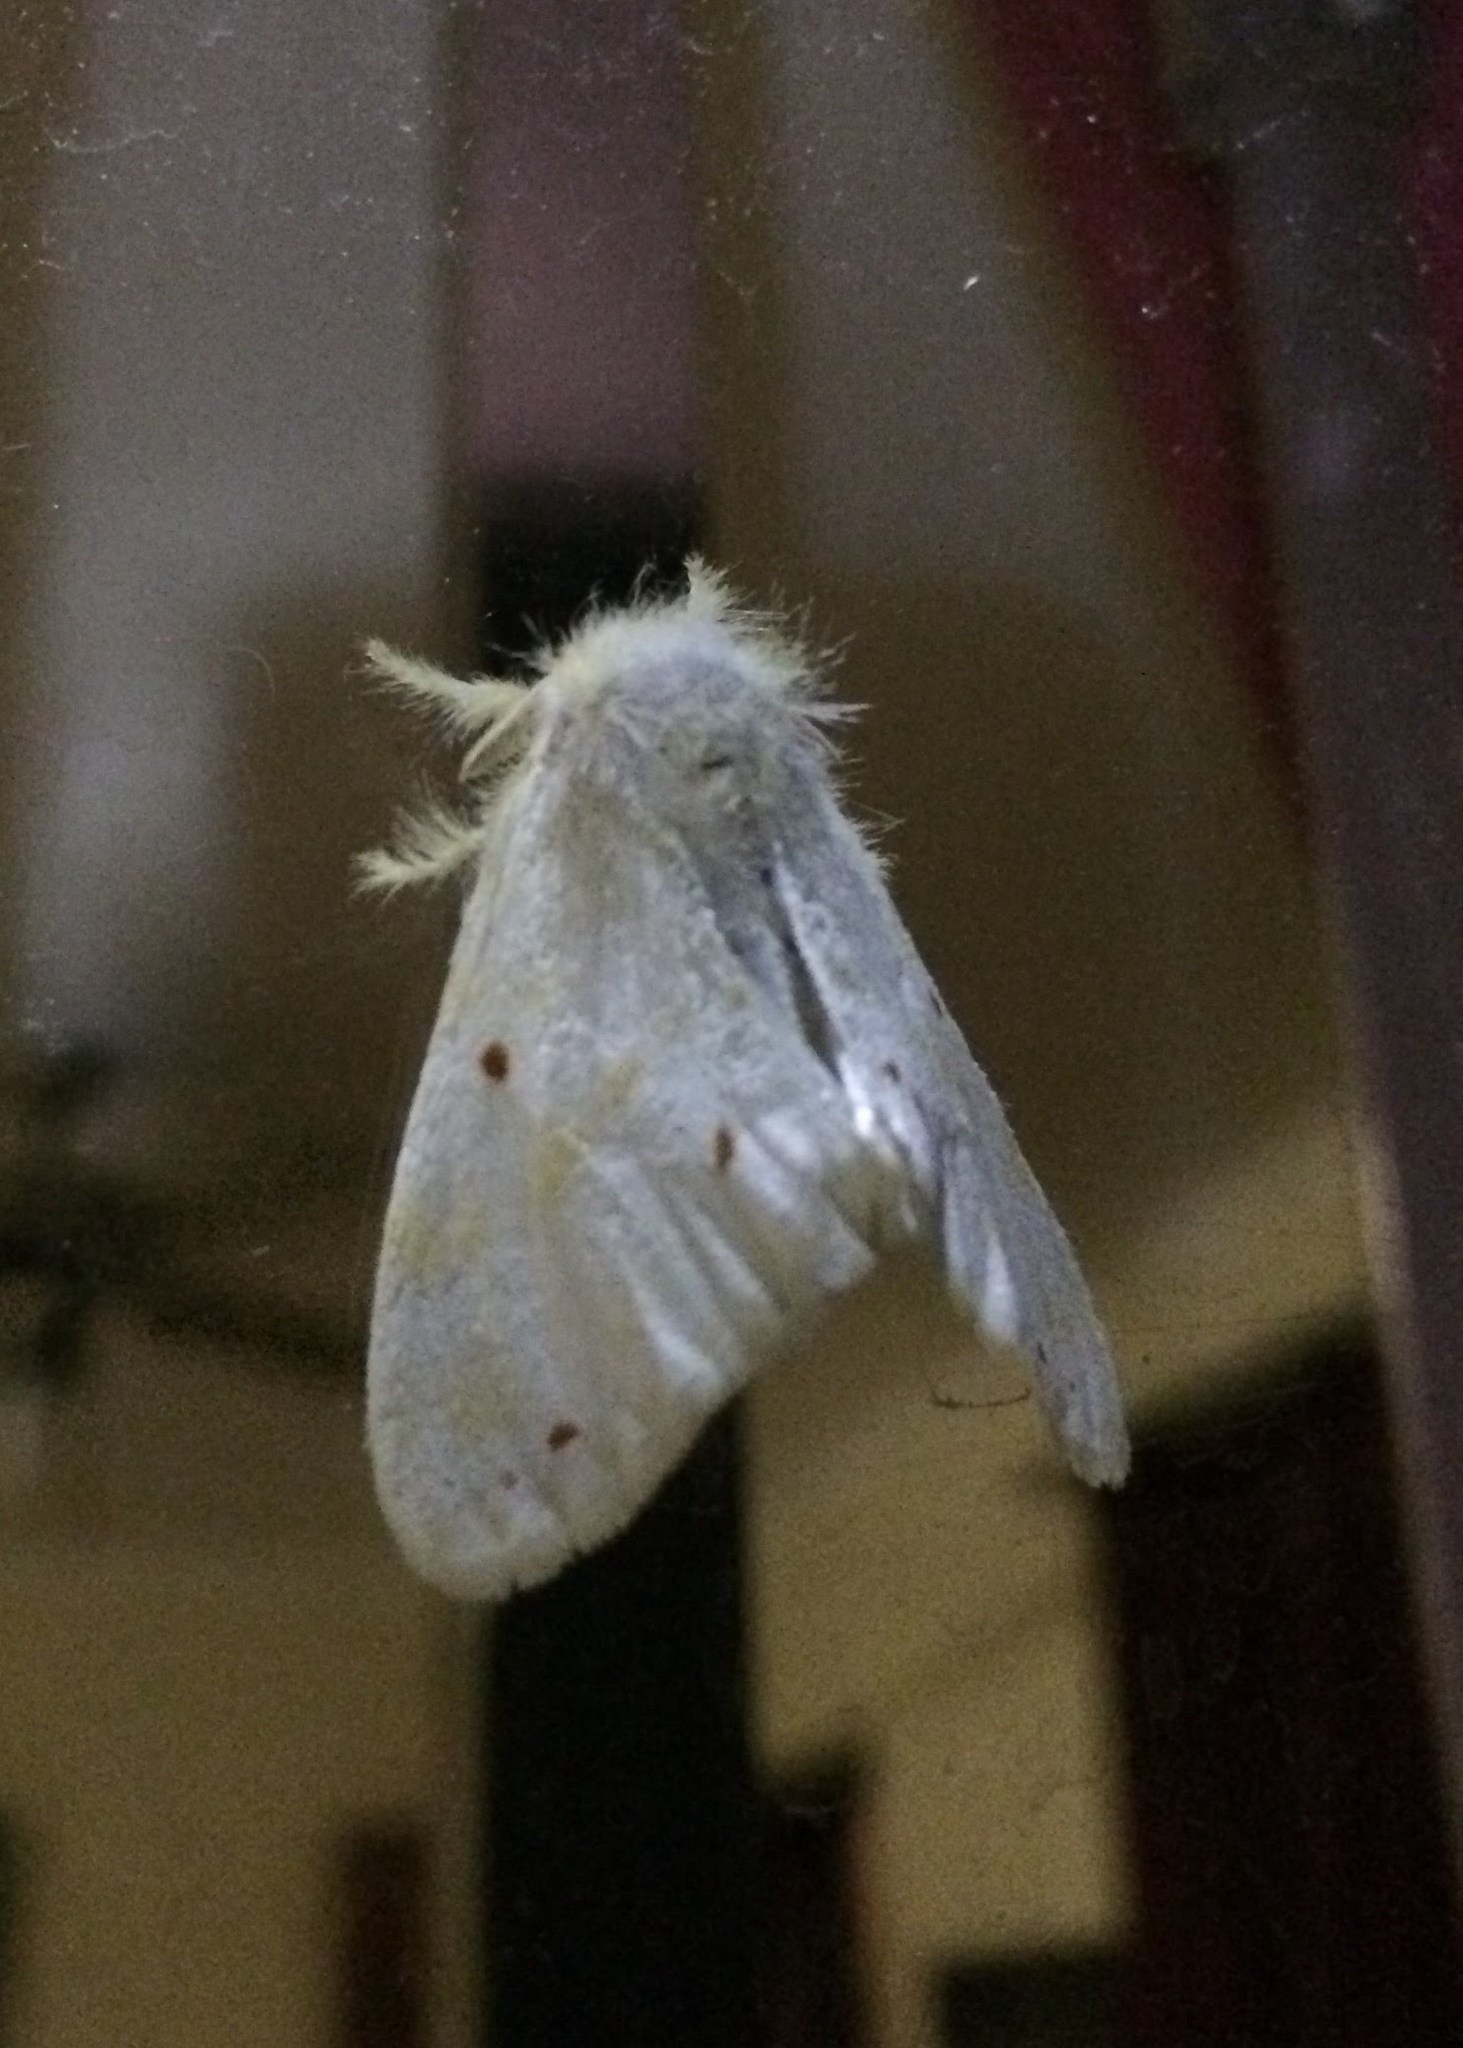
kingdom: Animalia
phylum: Arthropoda
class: Insecta
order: Lepidoptera
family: Erebidae
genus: Euproctis
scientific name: Euproctis rufopunctata
